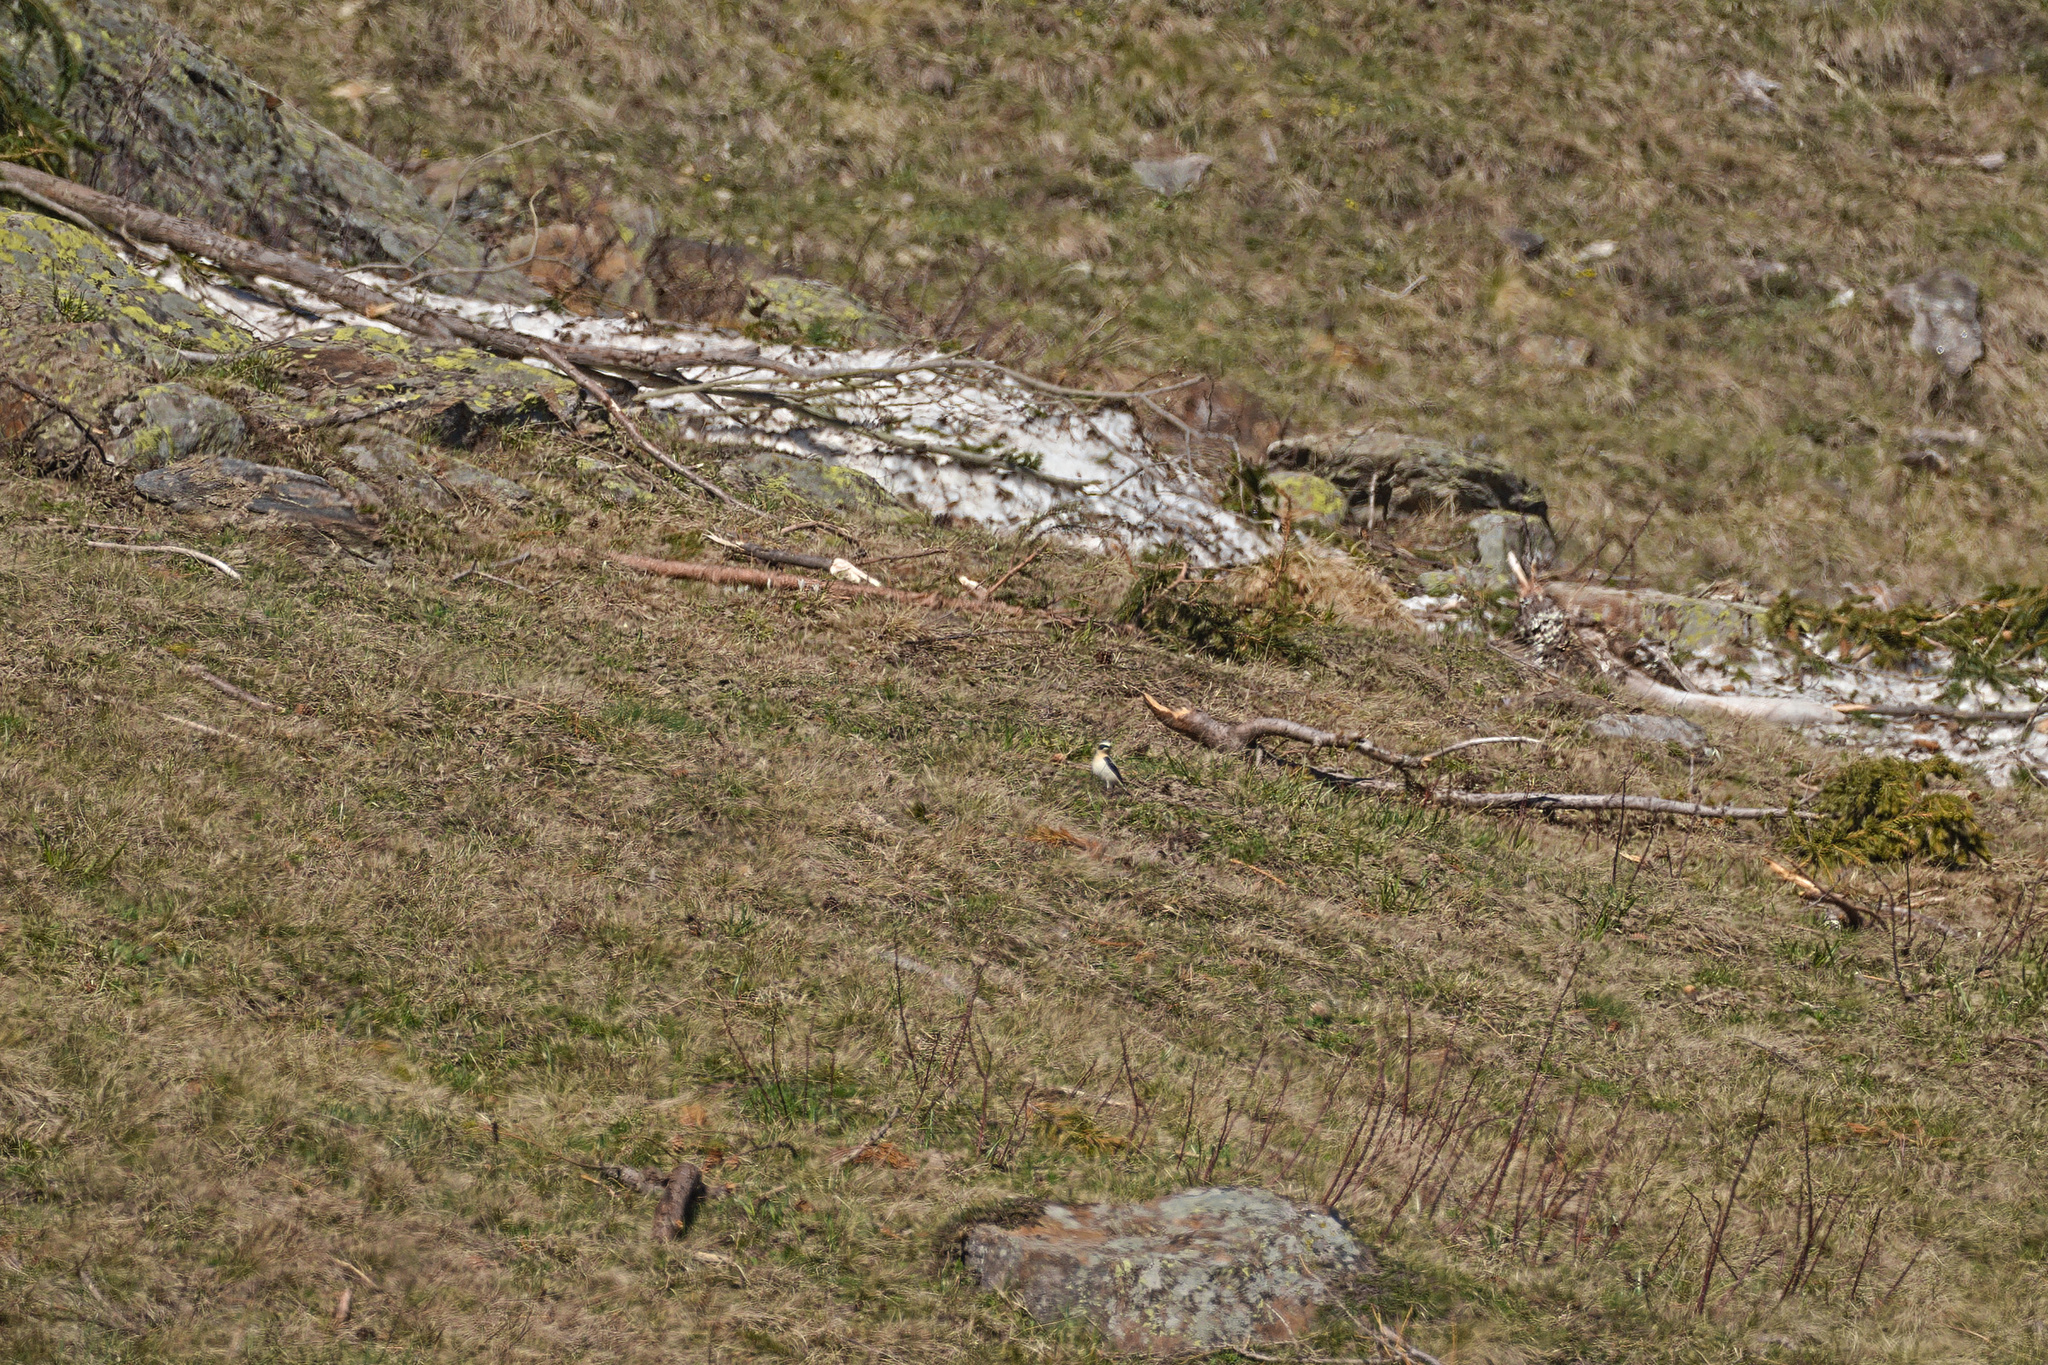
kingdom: Animalia
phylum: Chordata
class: Aves
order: Passeriformes
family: Muscicapidae
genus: Oenanthe
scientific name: Oenanthe oenanthe
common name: Northern wheatear
